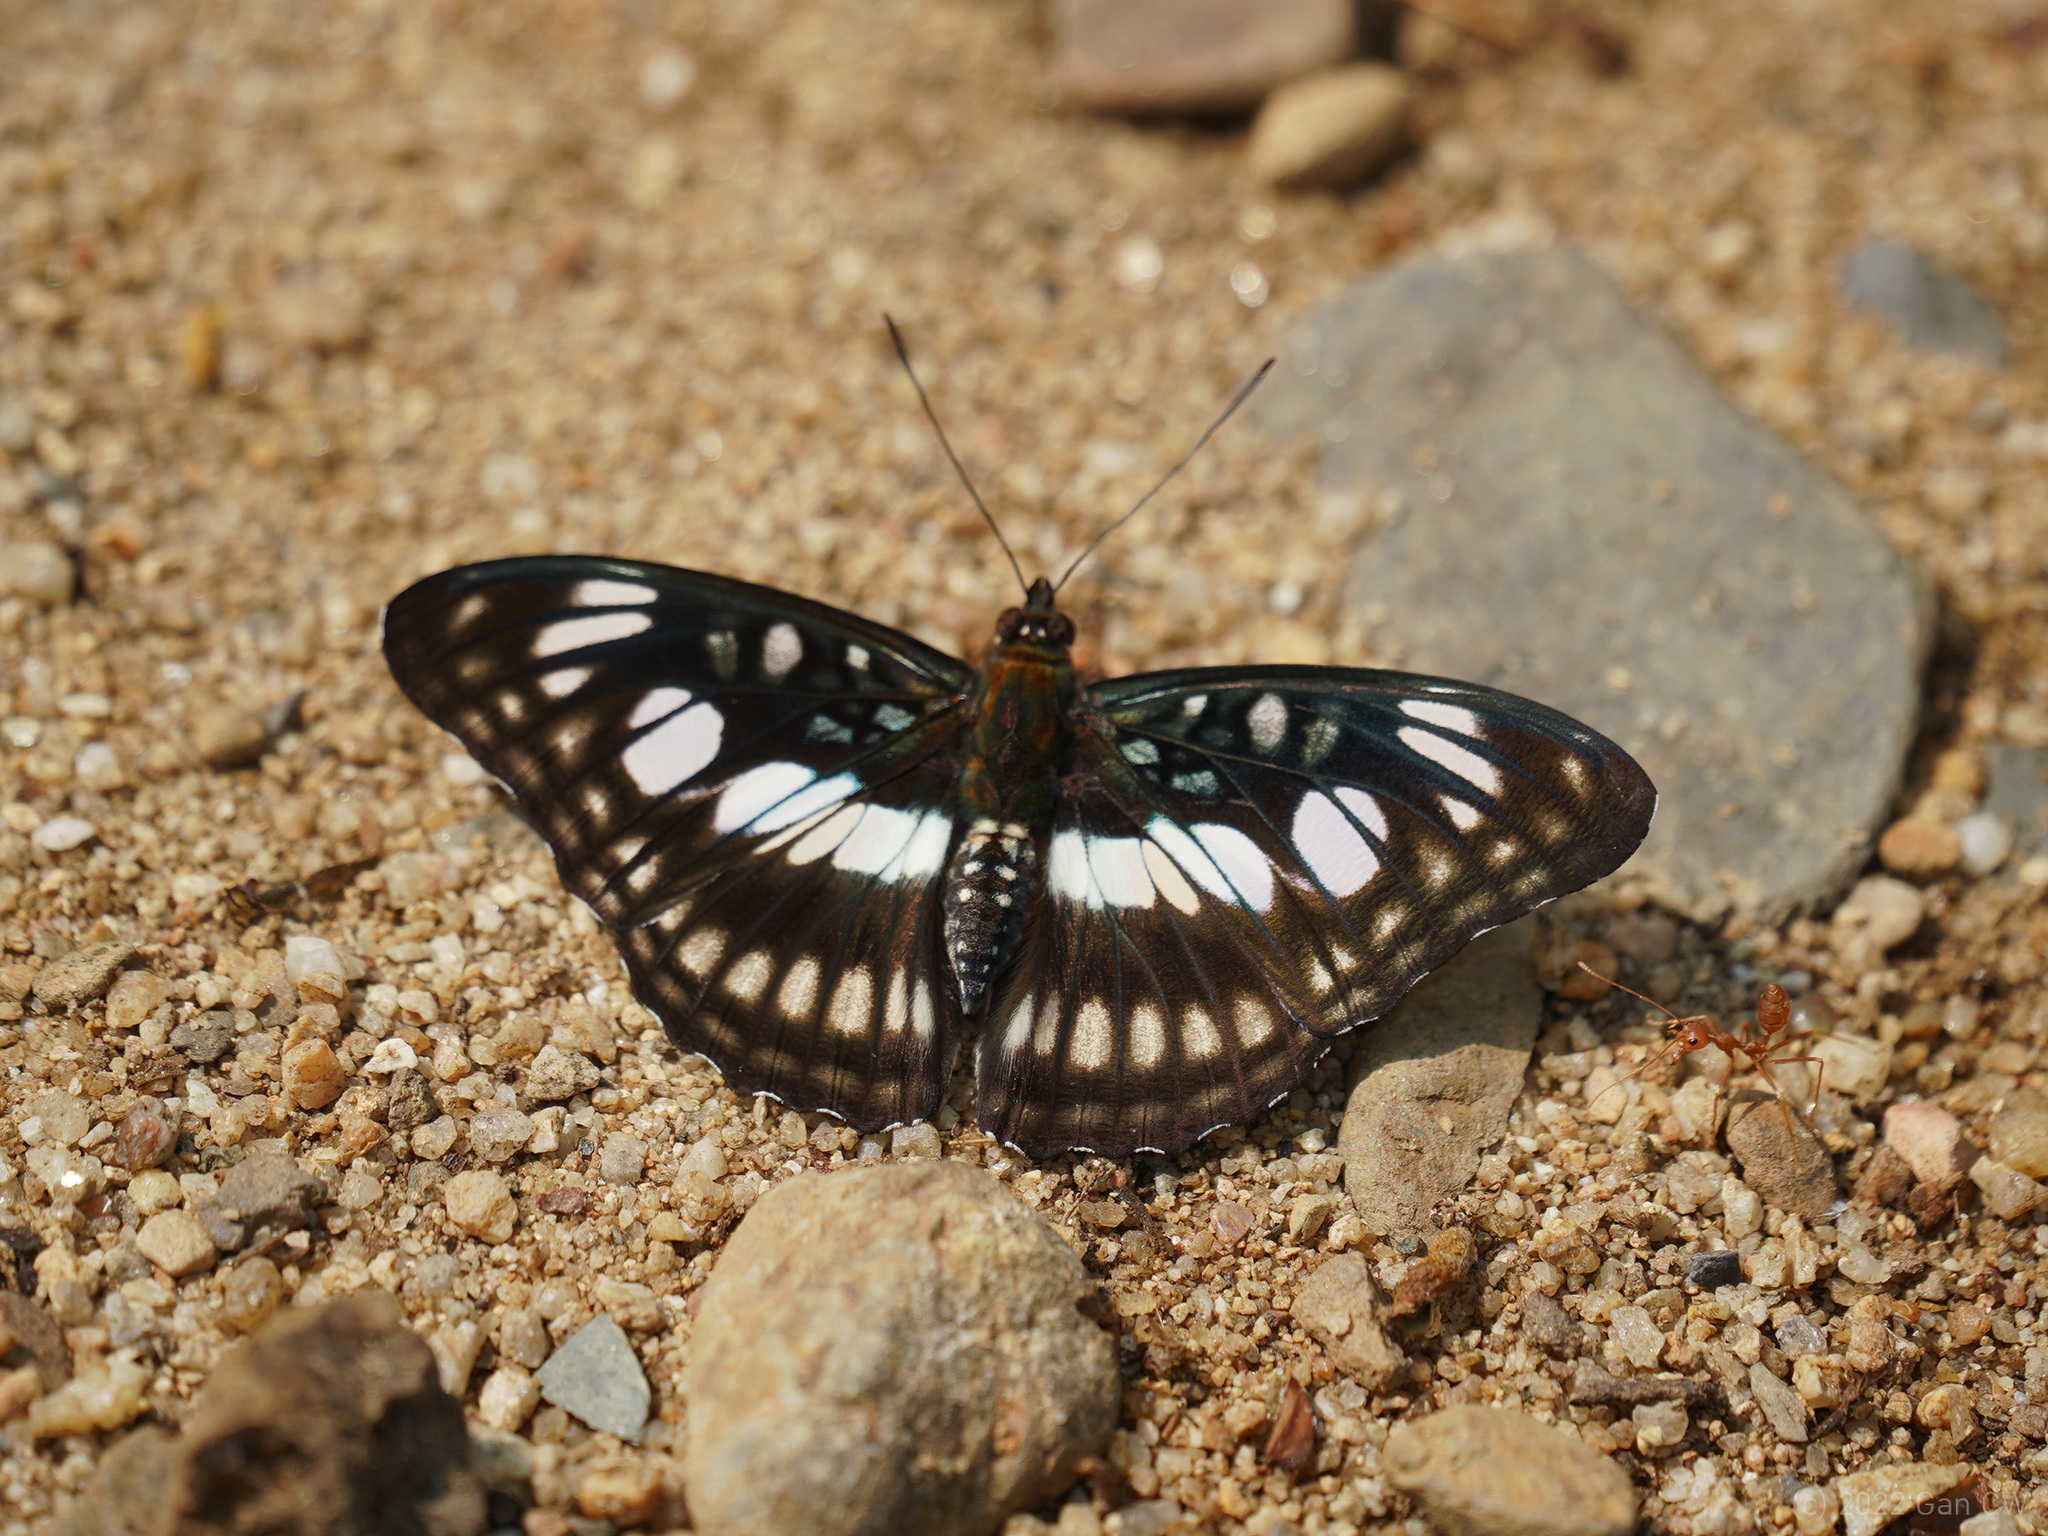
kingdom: Animalia
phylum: Arthropoda
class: Insecta
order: Lepidoptera
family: Nymphalidae
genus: Parathyma
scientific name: Parathyma ranga
